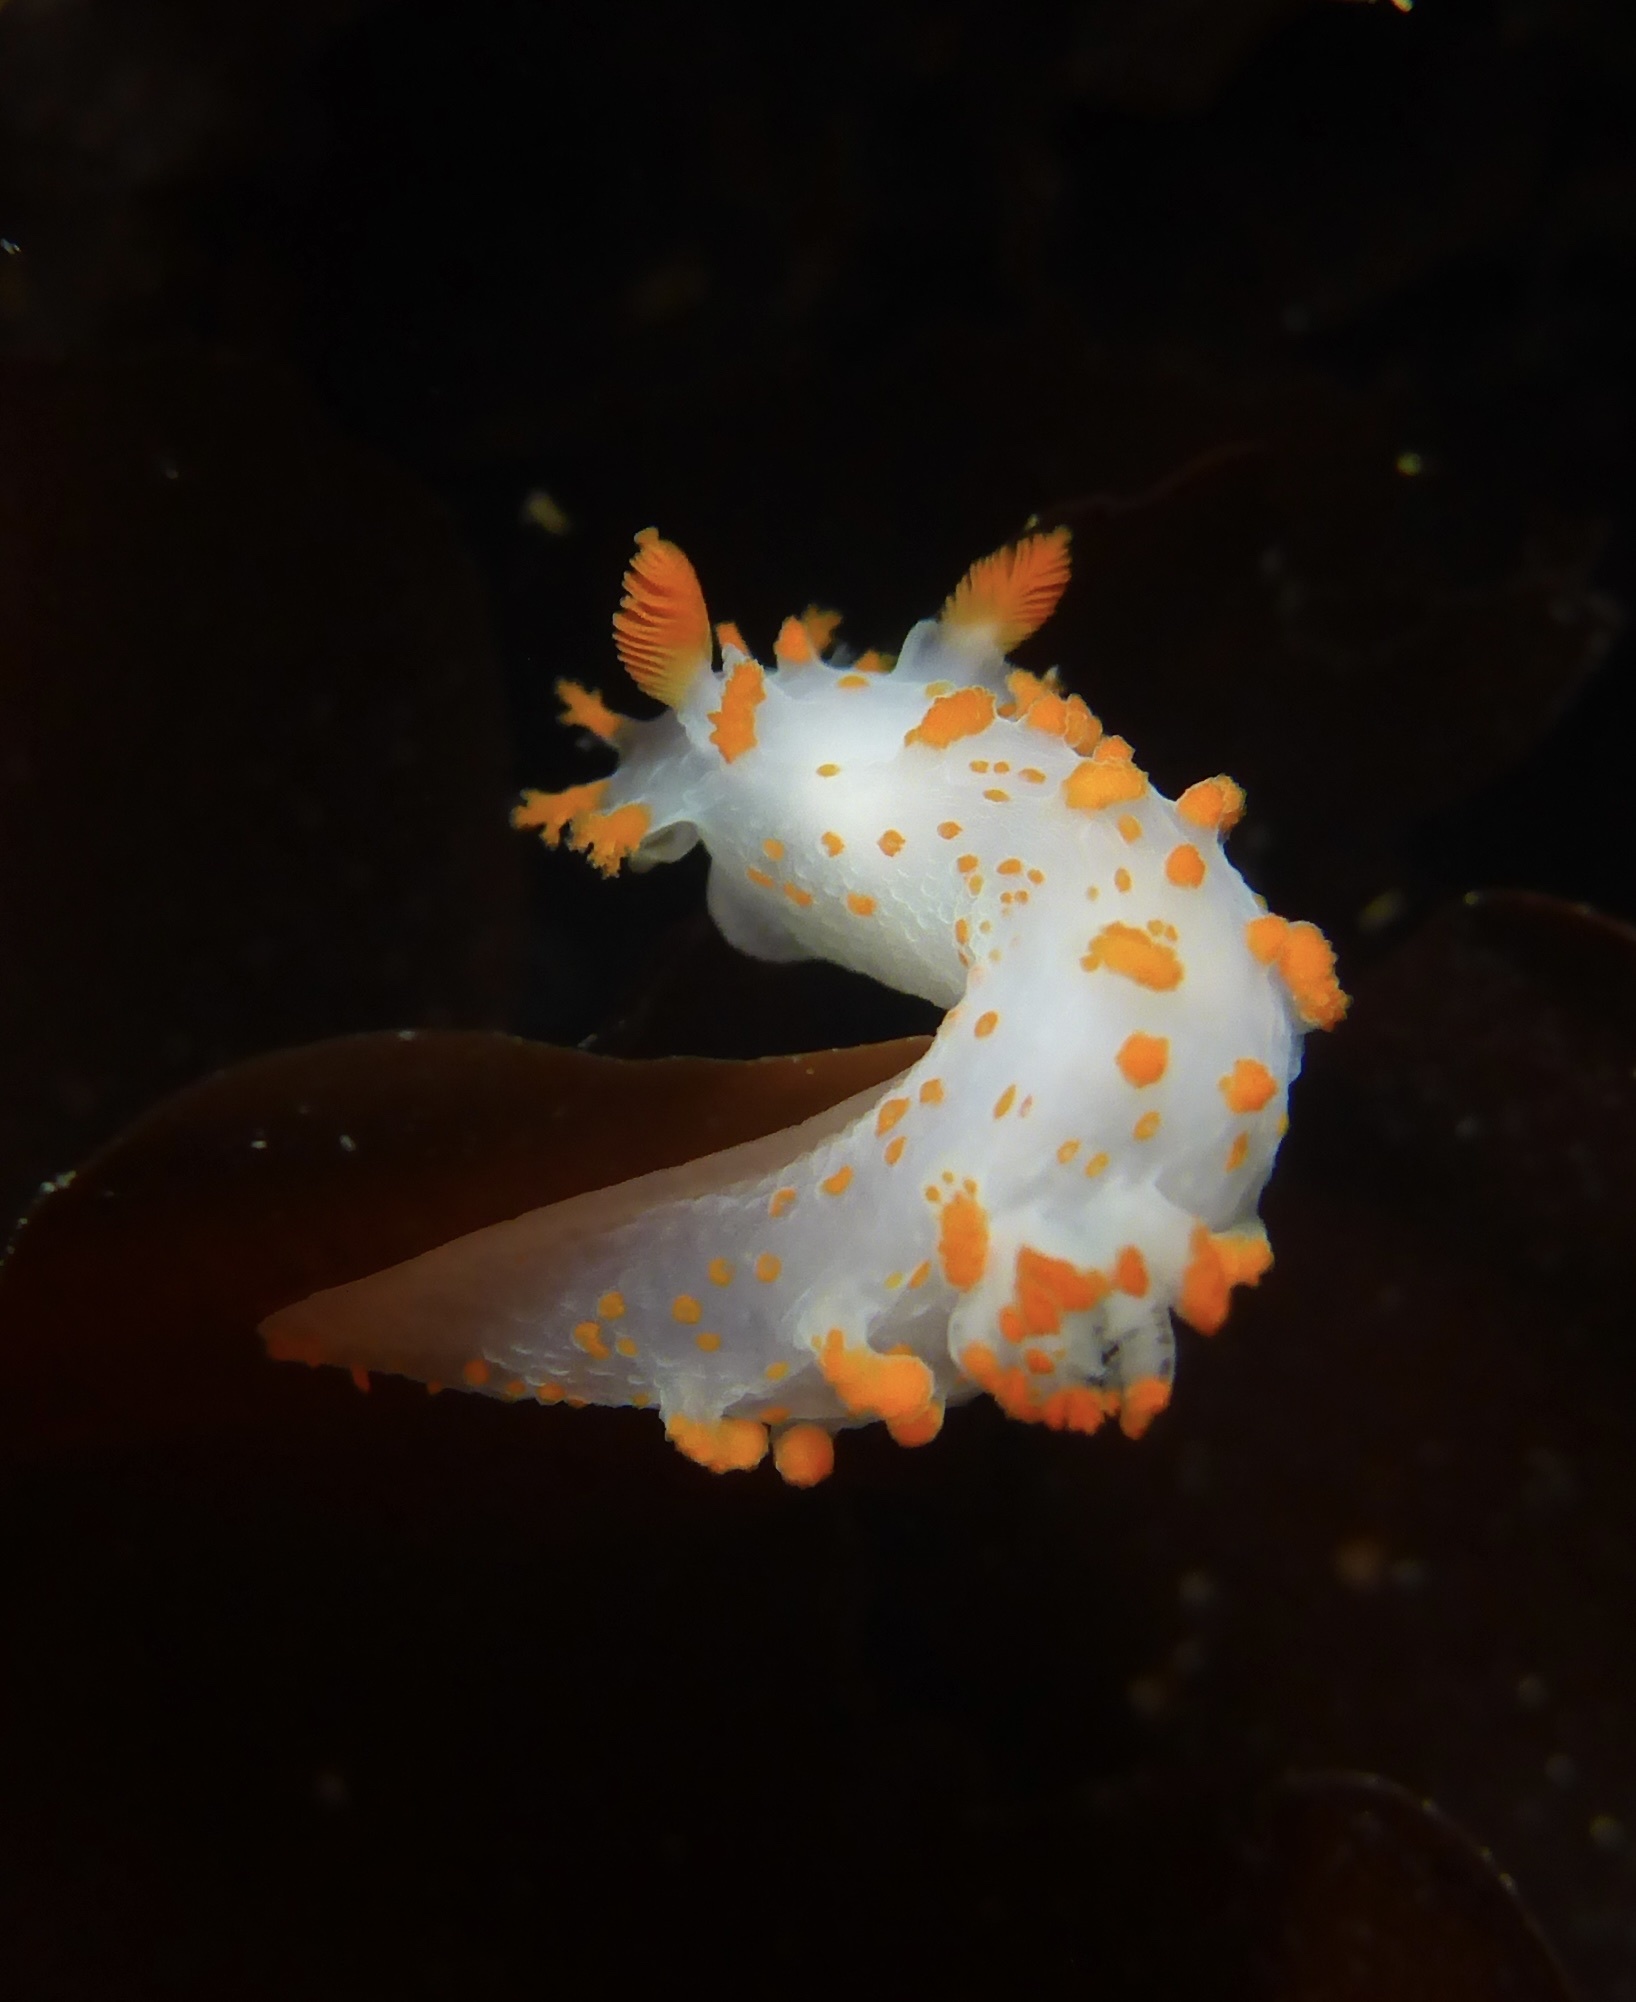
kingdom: Animalia
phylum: Mollusca
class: Gastropoda
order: Nudibranchia
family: Polyceridae
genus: Triopha
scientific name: Triopha catalinae
